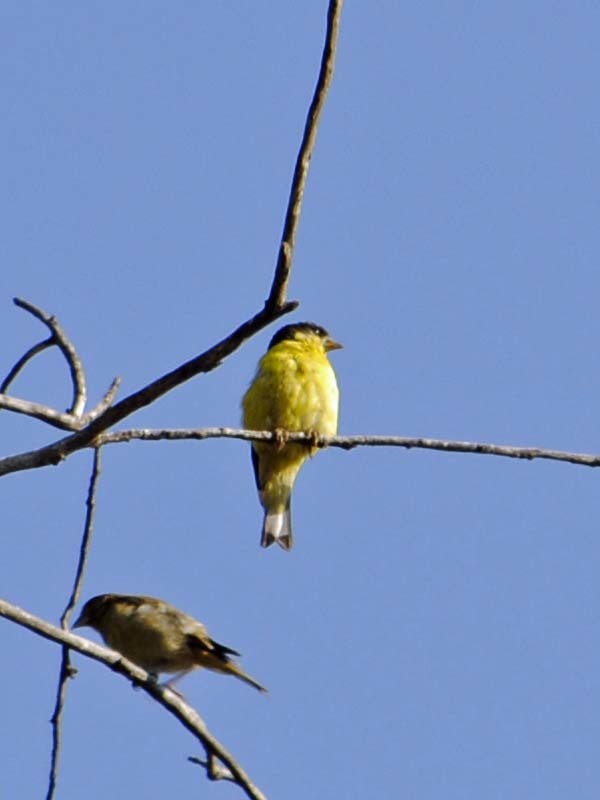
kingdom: Animalia
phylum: Chordata
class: Aves
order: Passeriformes
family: Fringillidae
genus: Spinus
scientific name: Spinus psaltria
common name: Lesser goldfinch
